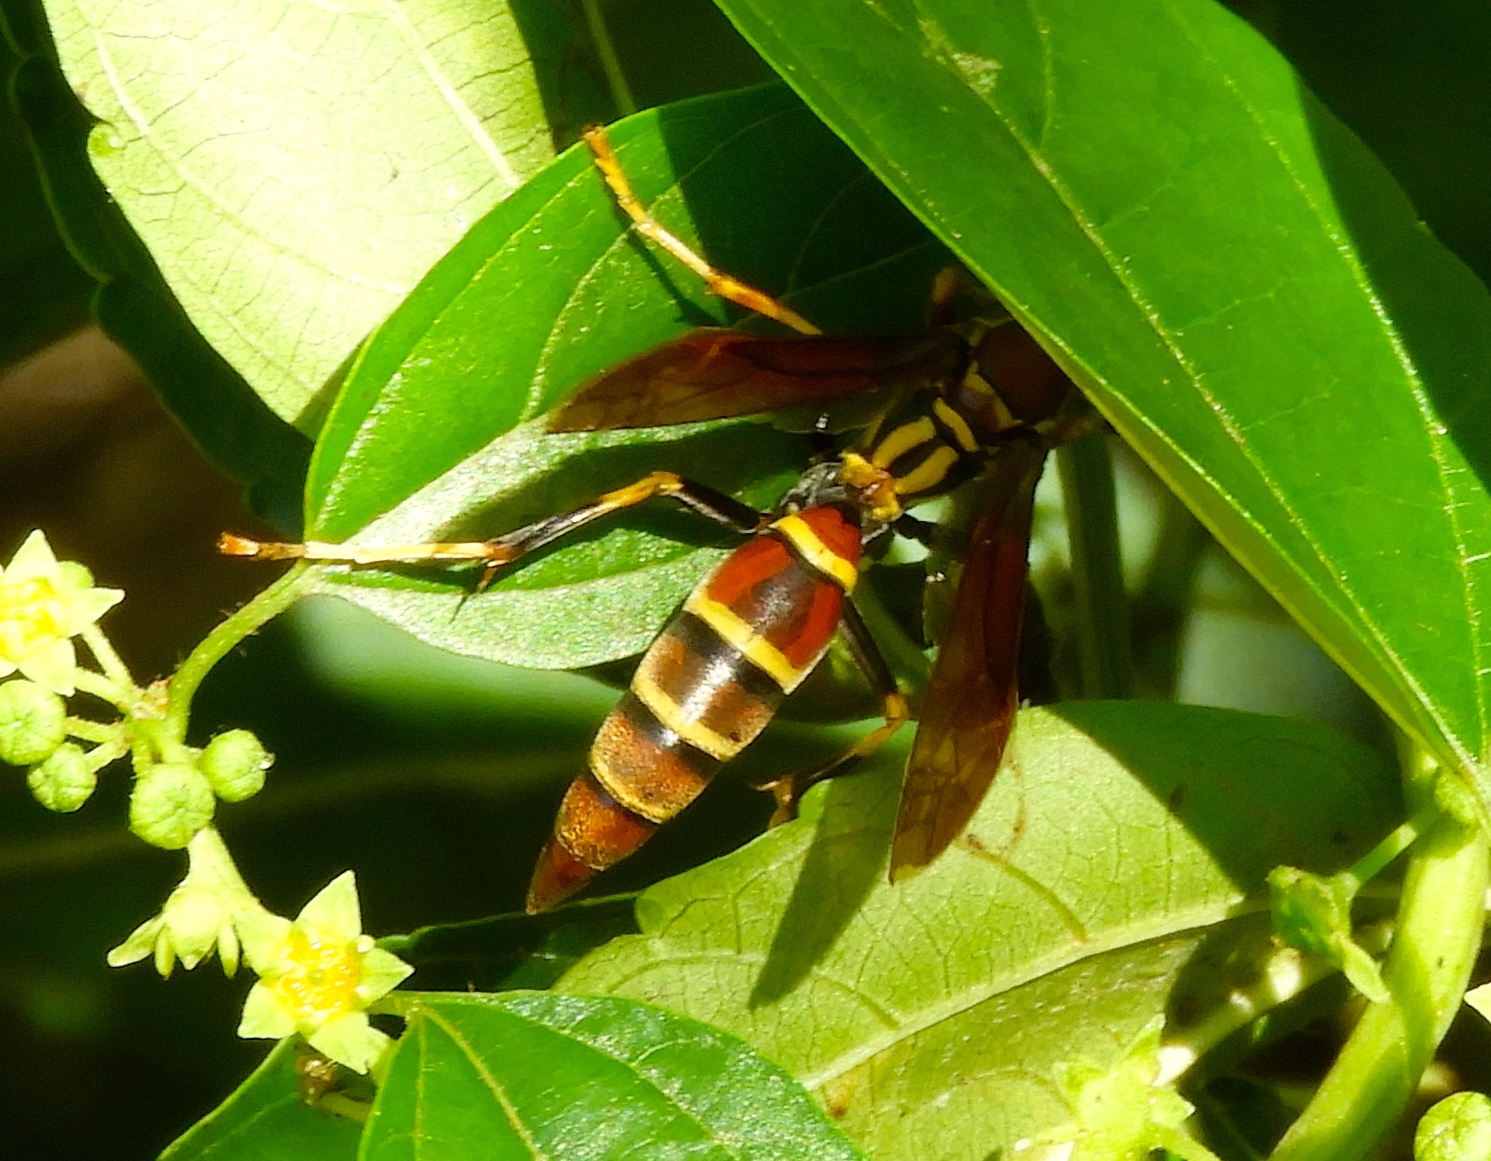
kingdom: Animalia
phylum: Arthropoda
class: Insecta
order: Hymenoptera
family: Pompilidae
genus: Aphanilopterus
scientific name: Aphanilopterus
